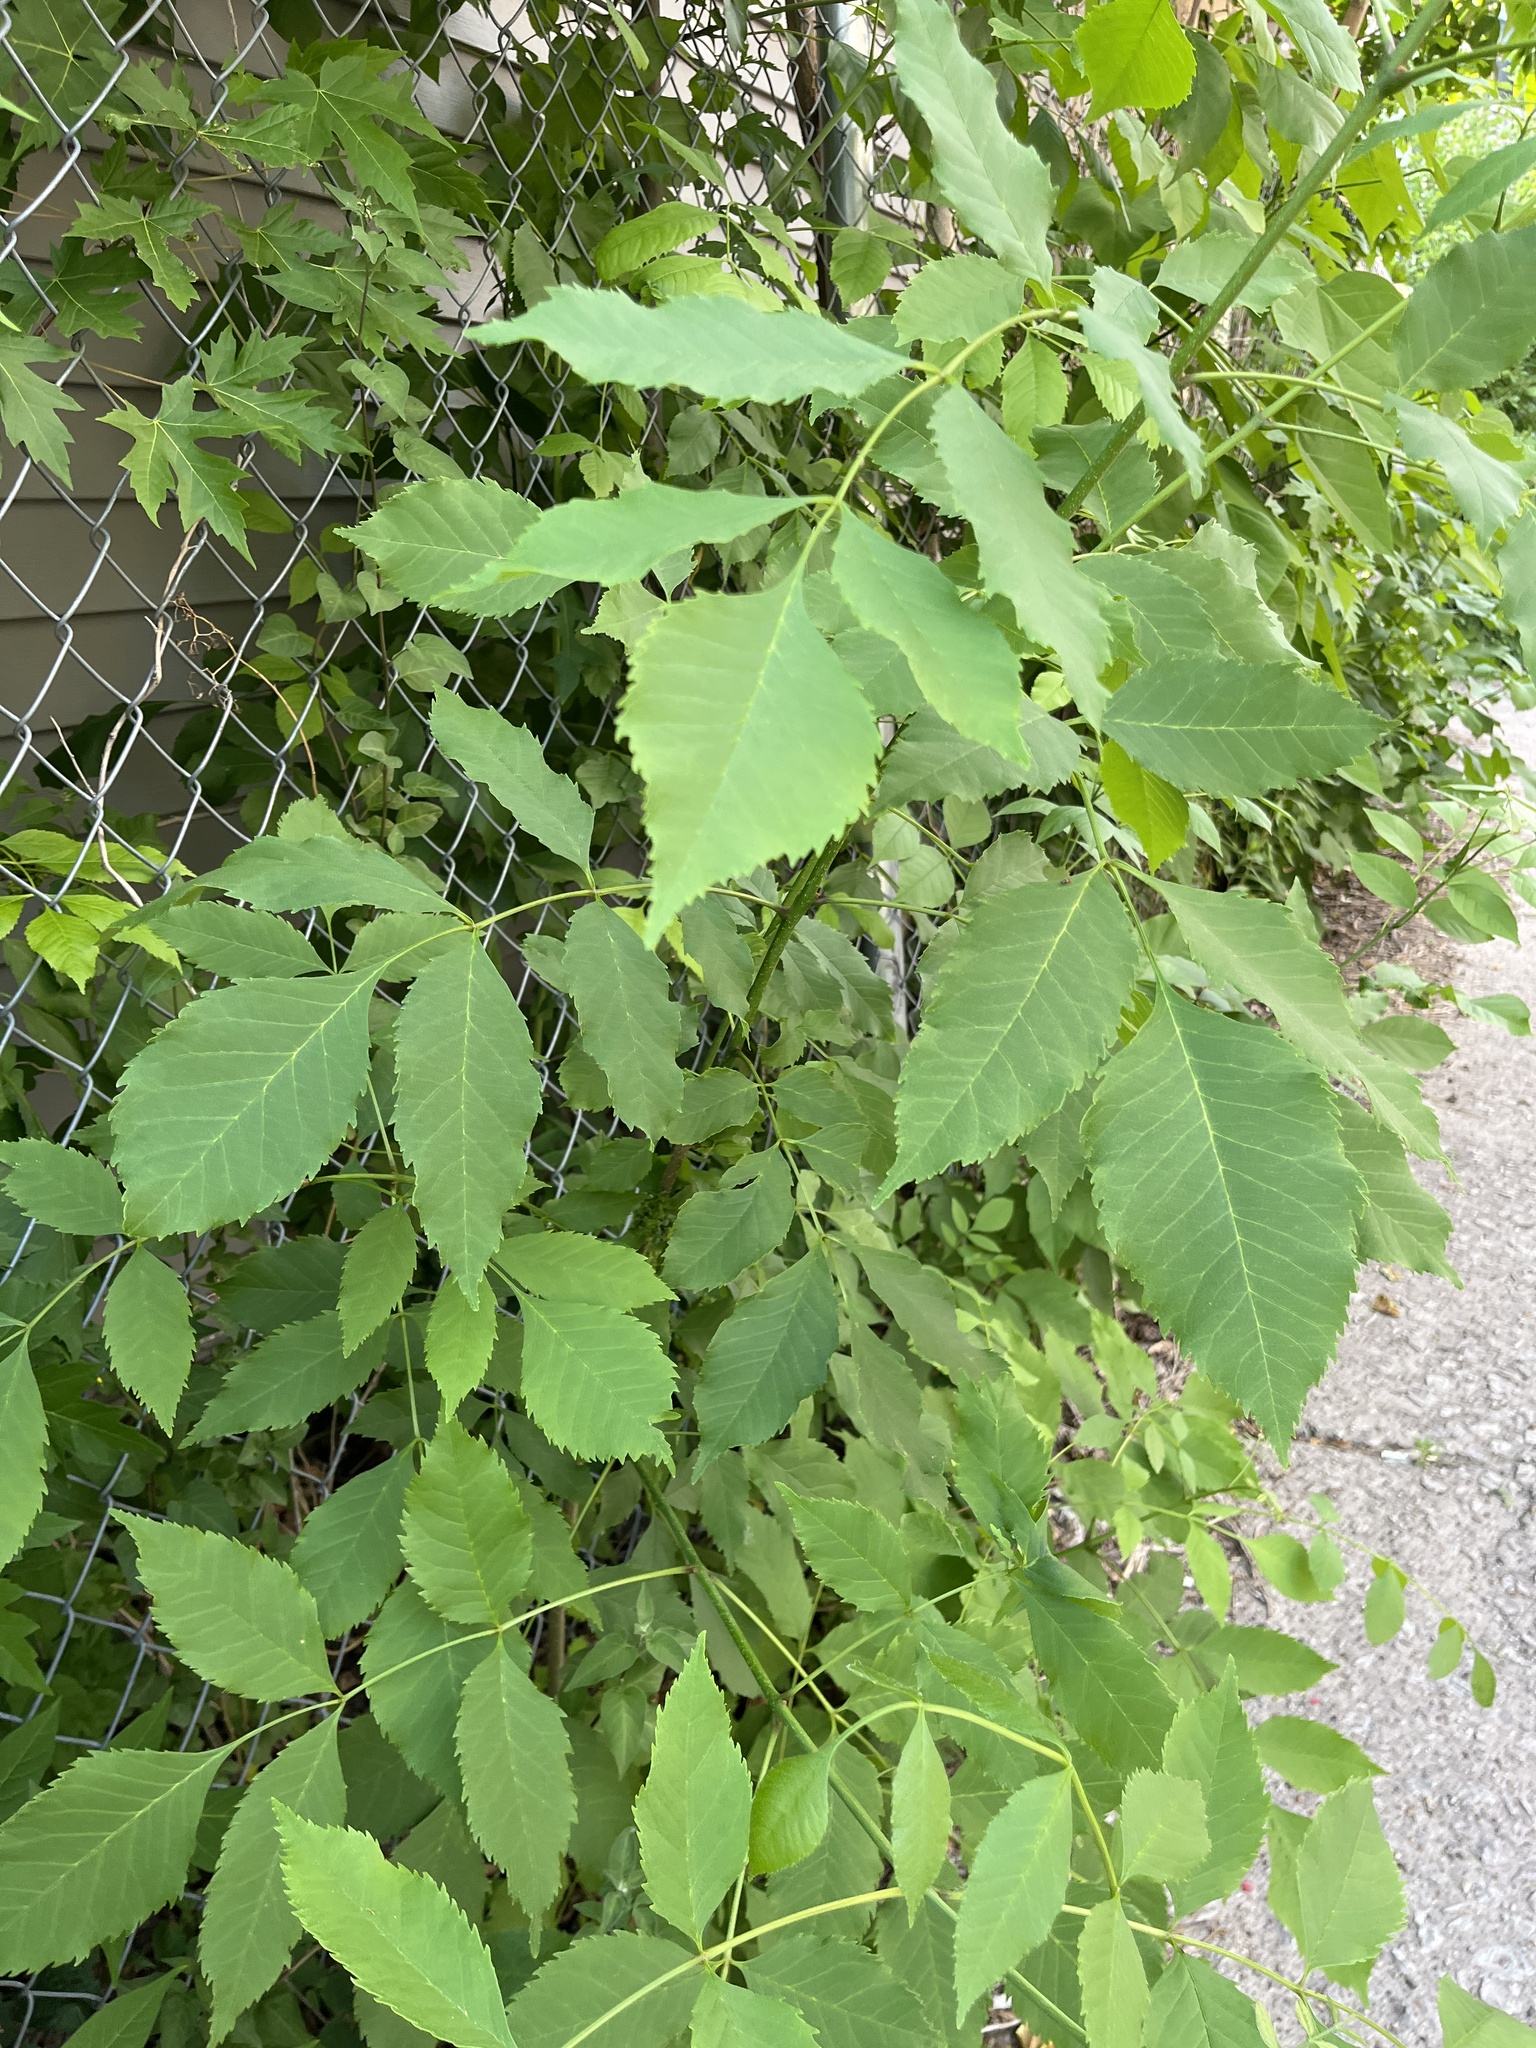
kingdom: Plantae
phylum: Tracheophyta
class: Magnoliopsida
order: Sapindales
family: Sapindaceae
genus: Acer
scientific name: Acer negundo
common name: Ashleaf maple
